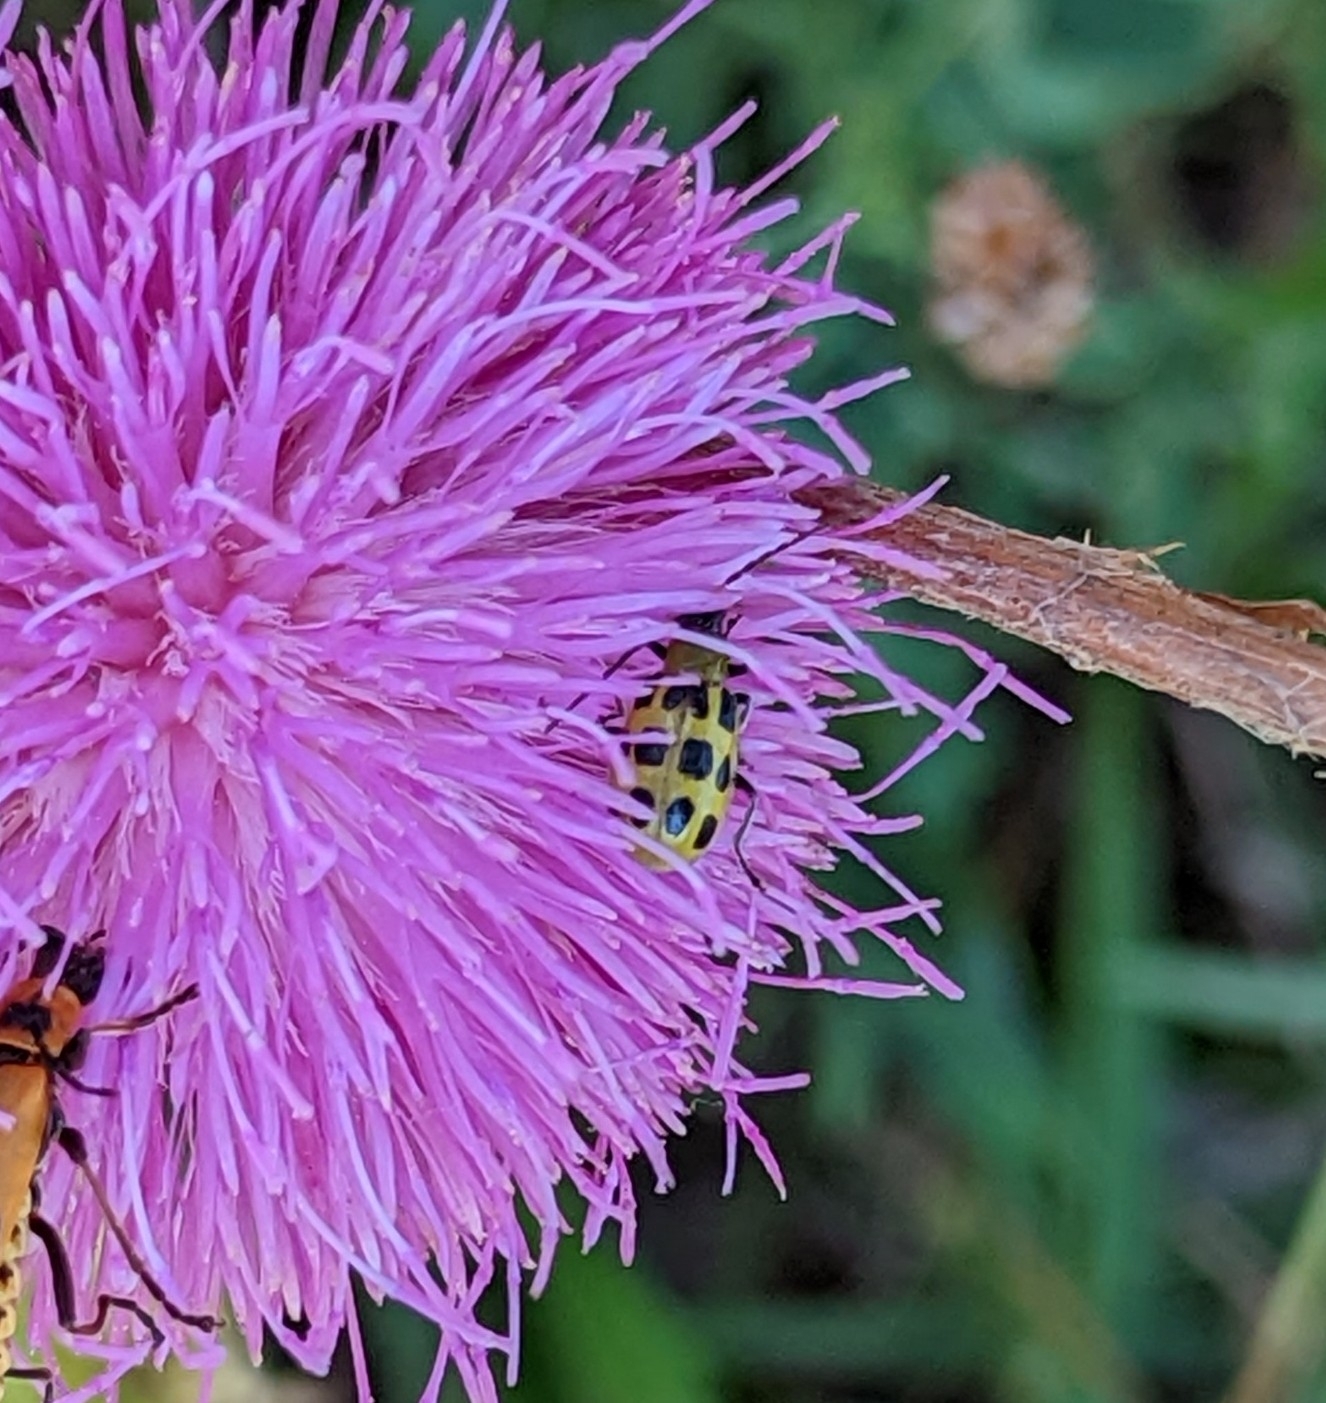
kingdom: Animalia
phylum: Arthropoda
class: Insecta
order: Coleoptera
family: Chrysomelidae
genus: Diabrotica
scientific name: Diabrotica undecimpunctata
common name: Spotted cucumber beetle
